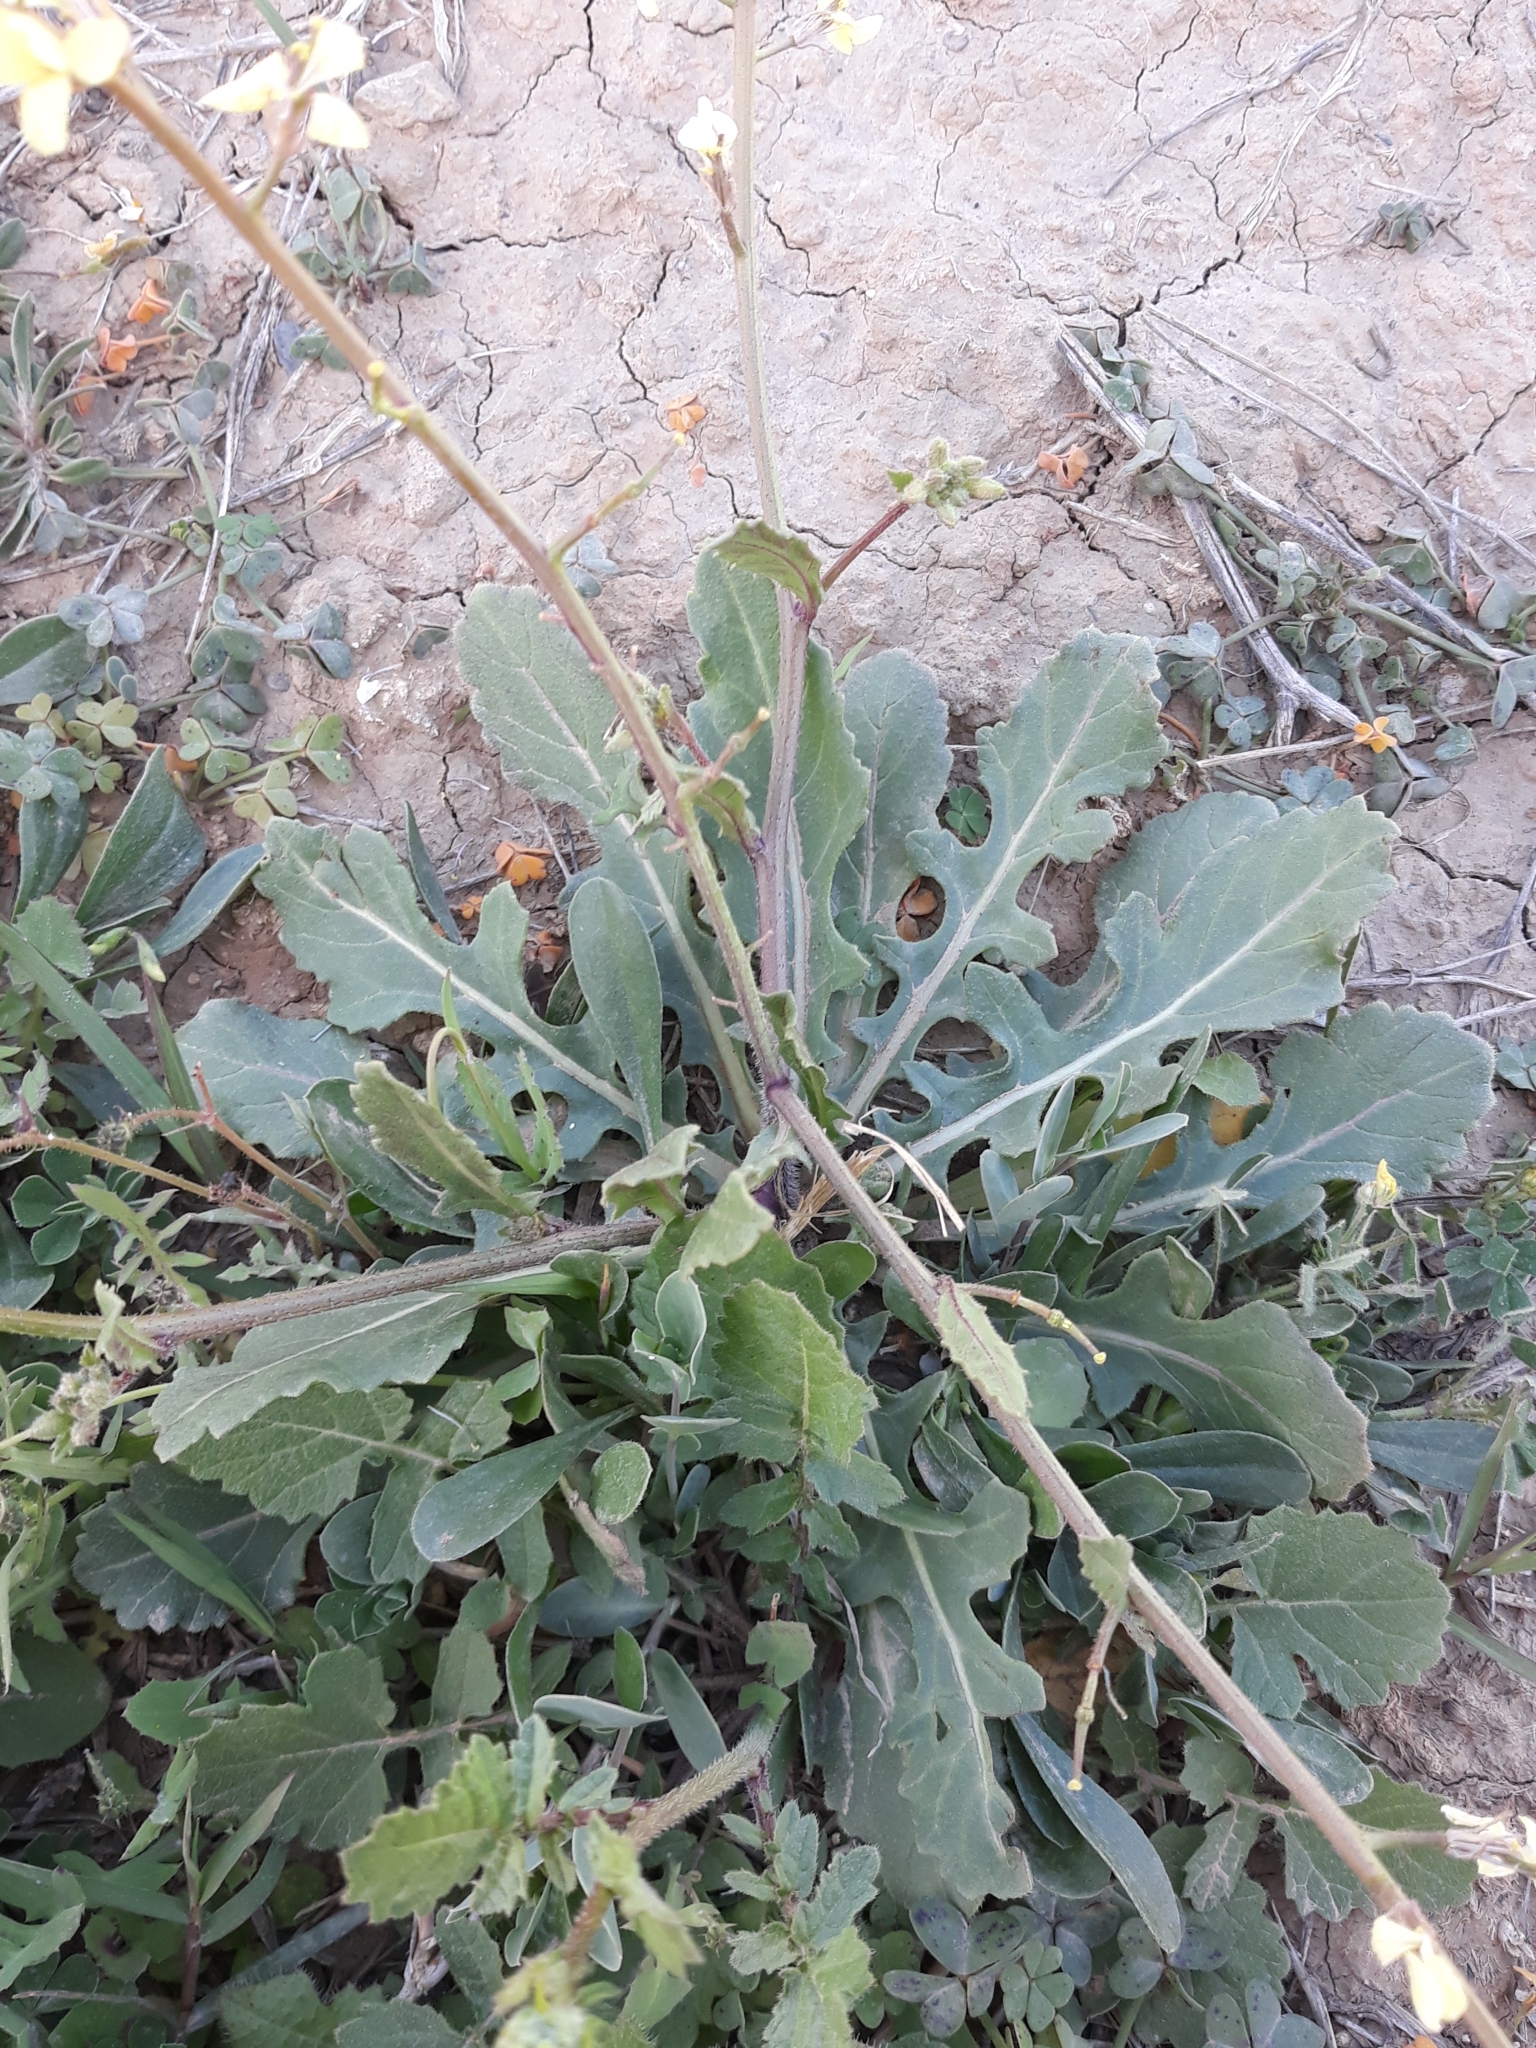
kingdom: Plantae
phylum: Tracheophyta
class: Magnoliopsida
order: Brassicales
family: Brassicaceae
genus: Diplotaxis
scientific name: Diplotaxis virgata
